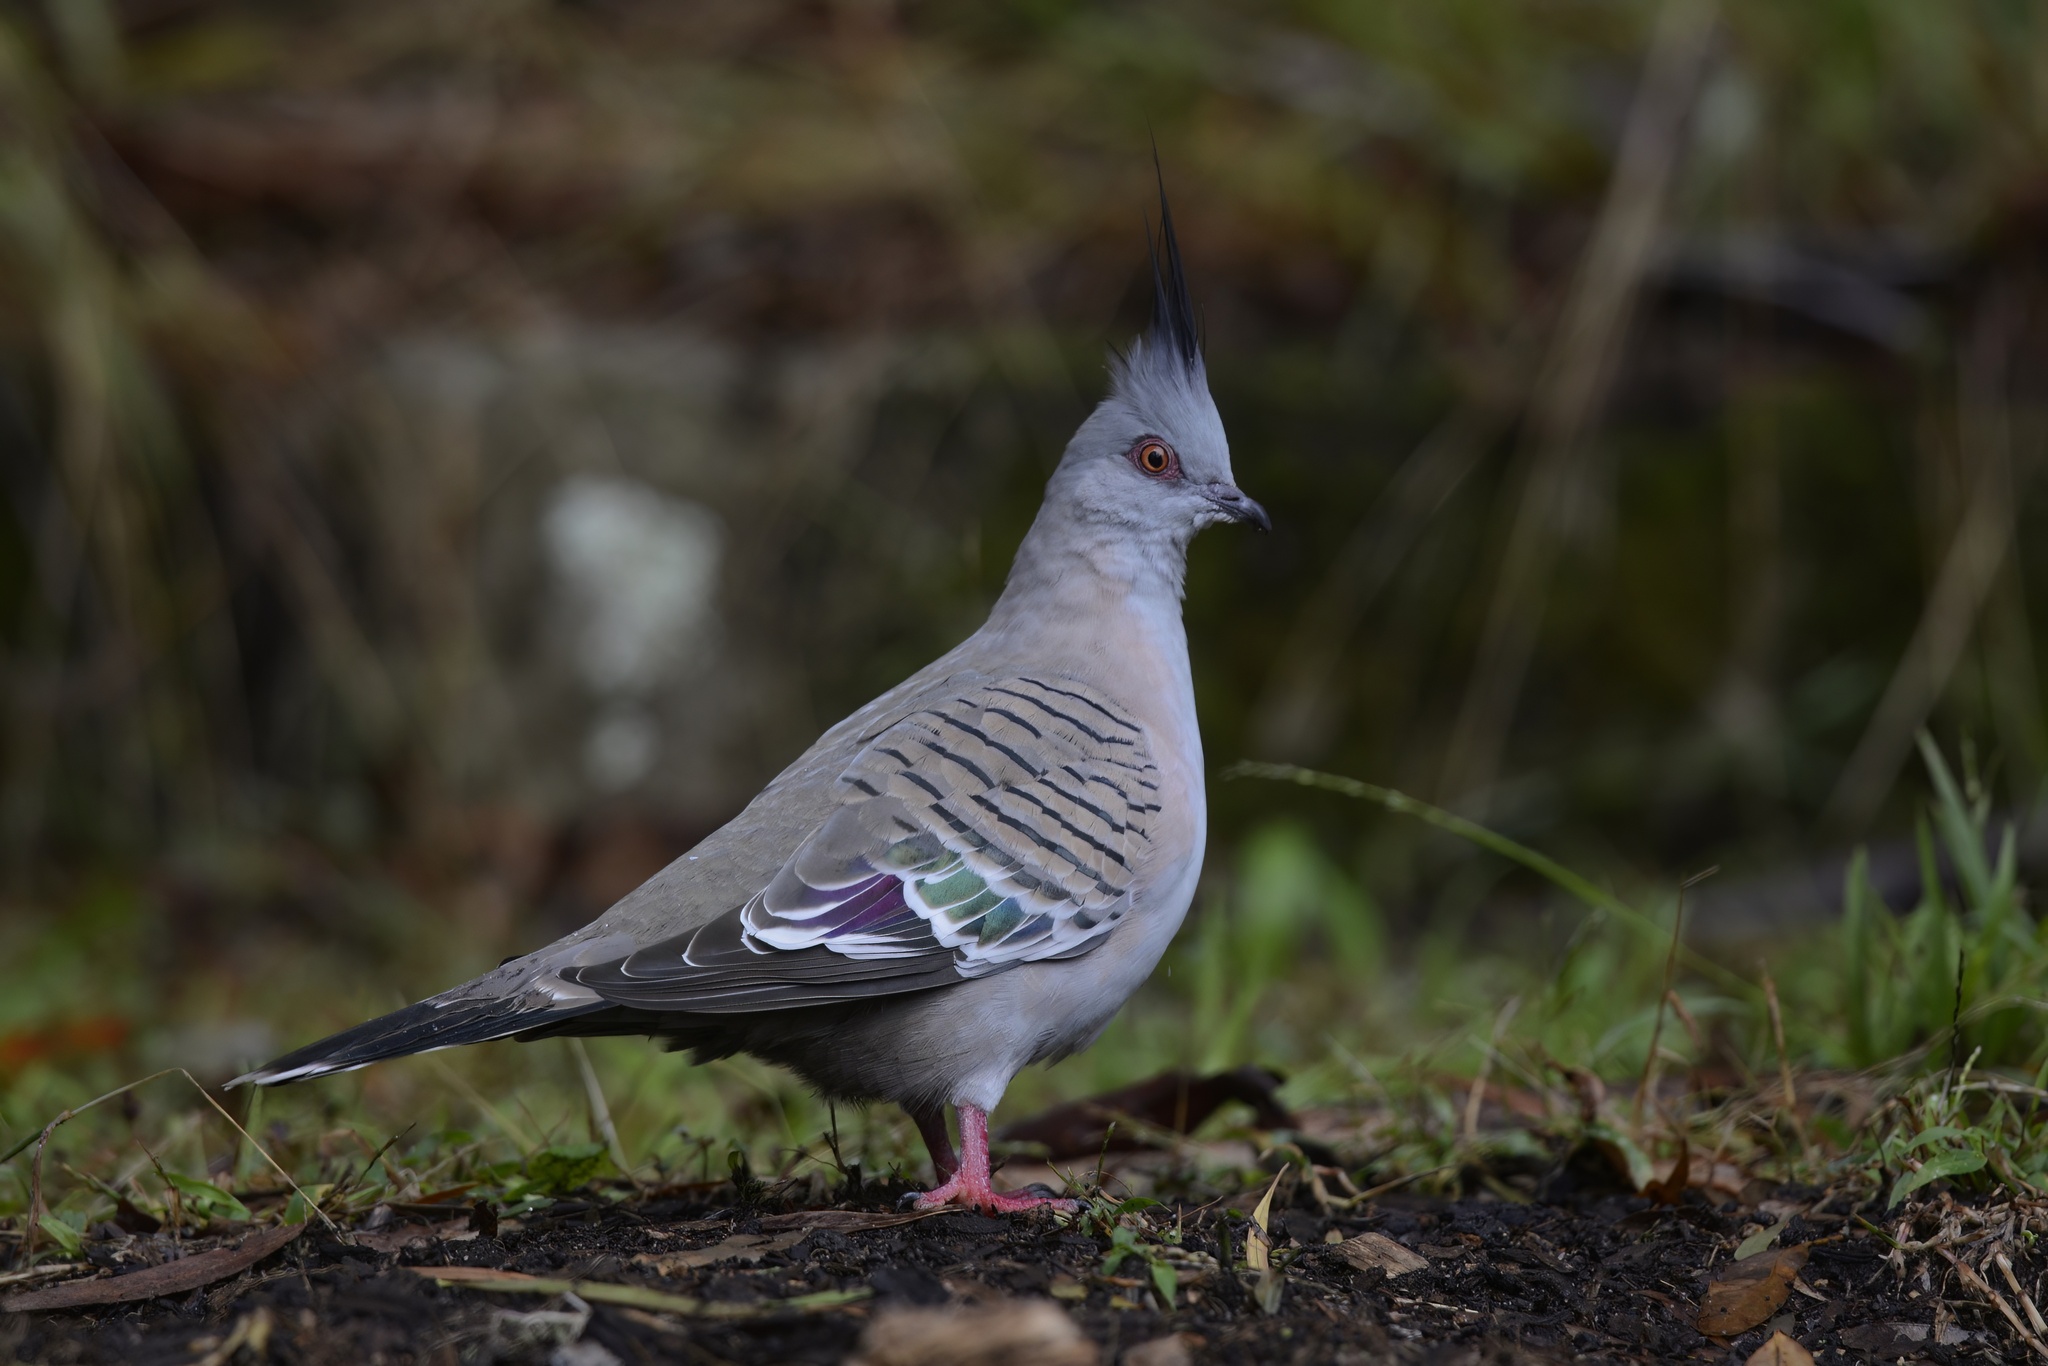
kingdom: Animalia
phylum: Chordata
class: Aves
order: Columbiformes
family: Columbidae
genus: Ocyphaps
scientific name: Ocyphaps lophotes
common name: Crested pigeon
